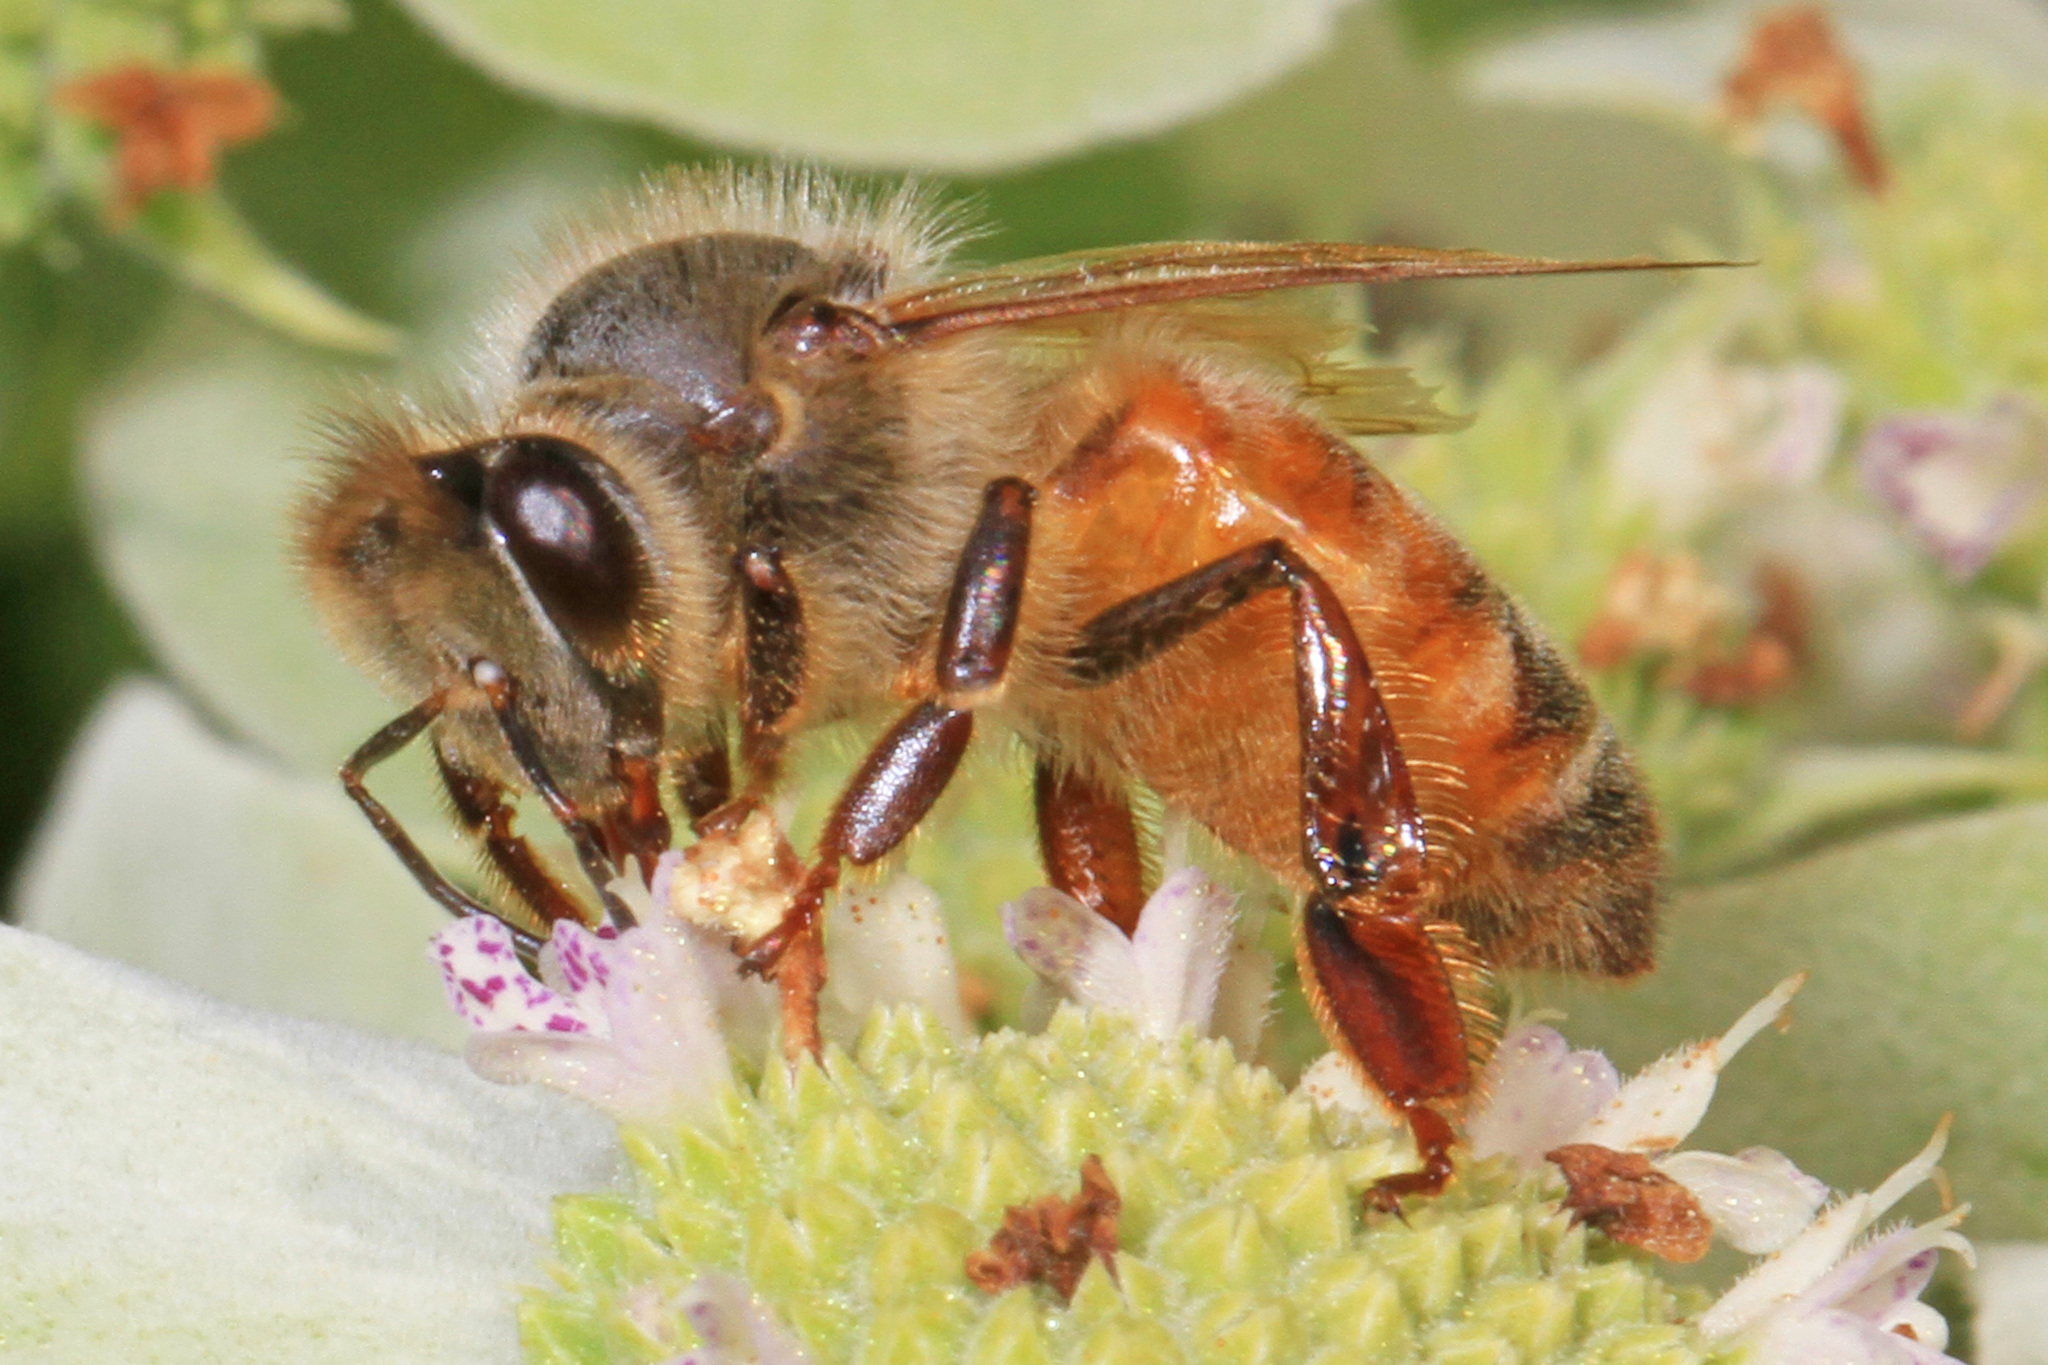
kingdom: Animalia
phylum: Arthropoda
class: Insecta
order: Hymenoptera
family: Apidae
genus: Apis
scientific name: Apis mellifera
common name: Honey bee
